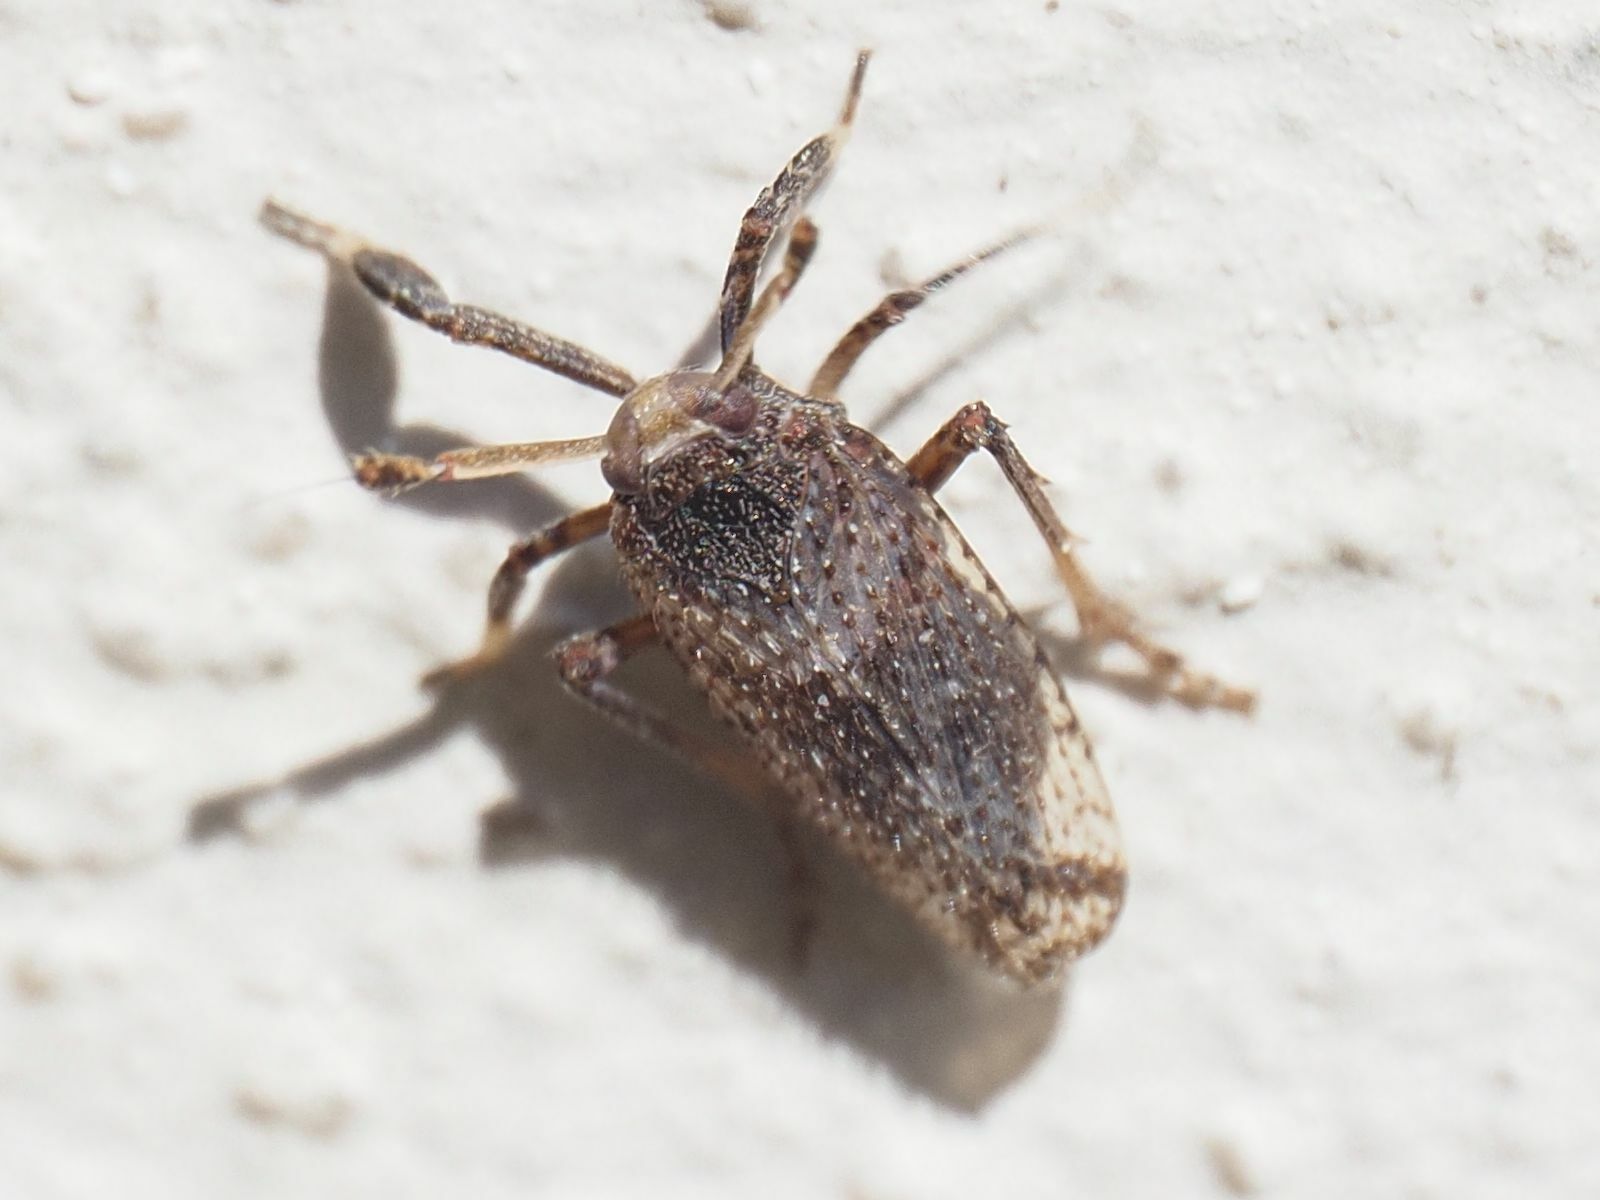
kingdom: Animalia
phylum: Arthropoda
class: Insecta
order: Hemiptera
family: Delphacidae
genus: Asiraca
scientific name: Asiraca clavicornis
